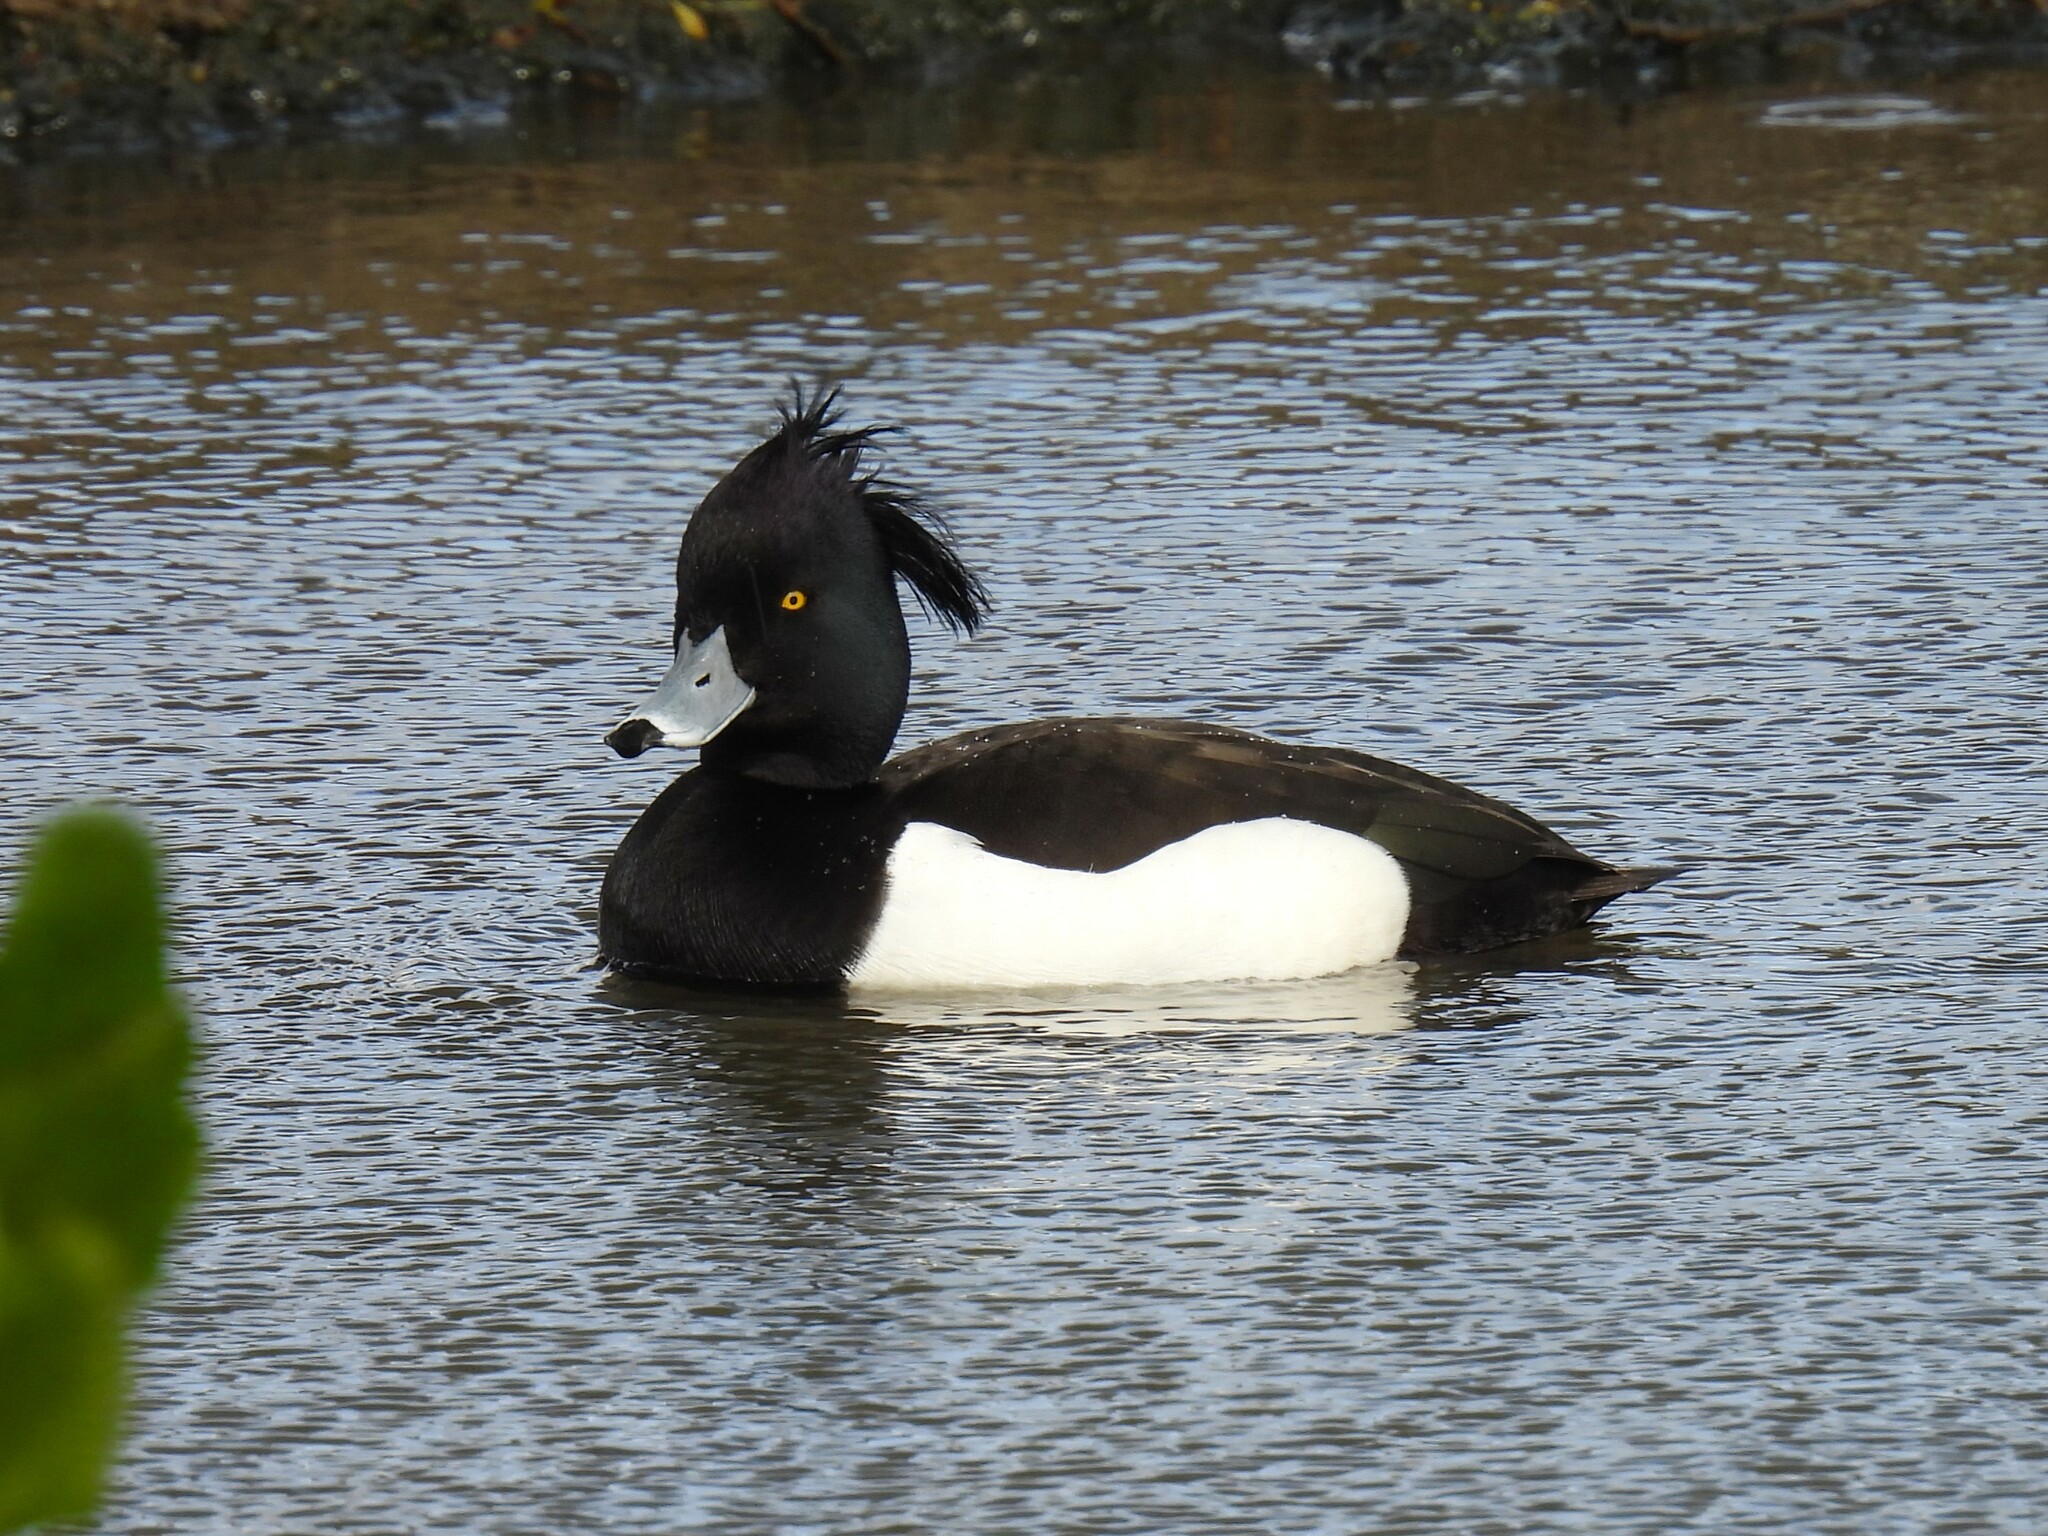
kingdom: Animalia
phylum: Chordata
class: Aves
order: Anseriformes
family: Anatidae
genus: Aythya
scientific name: Aythya fuligula
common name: Tufted duck
